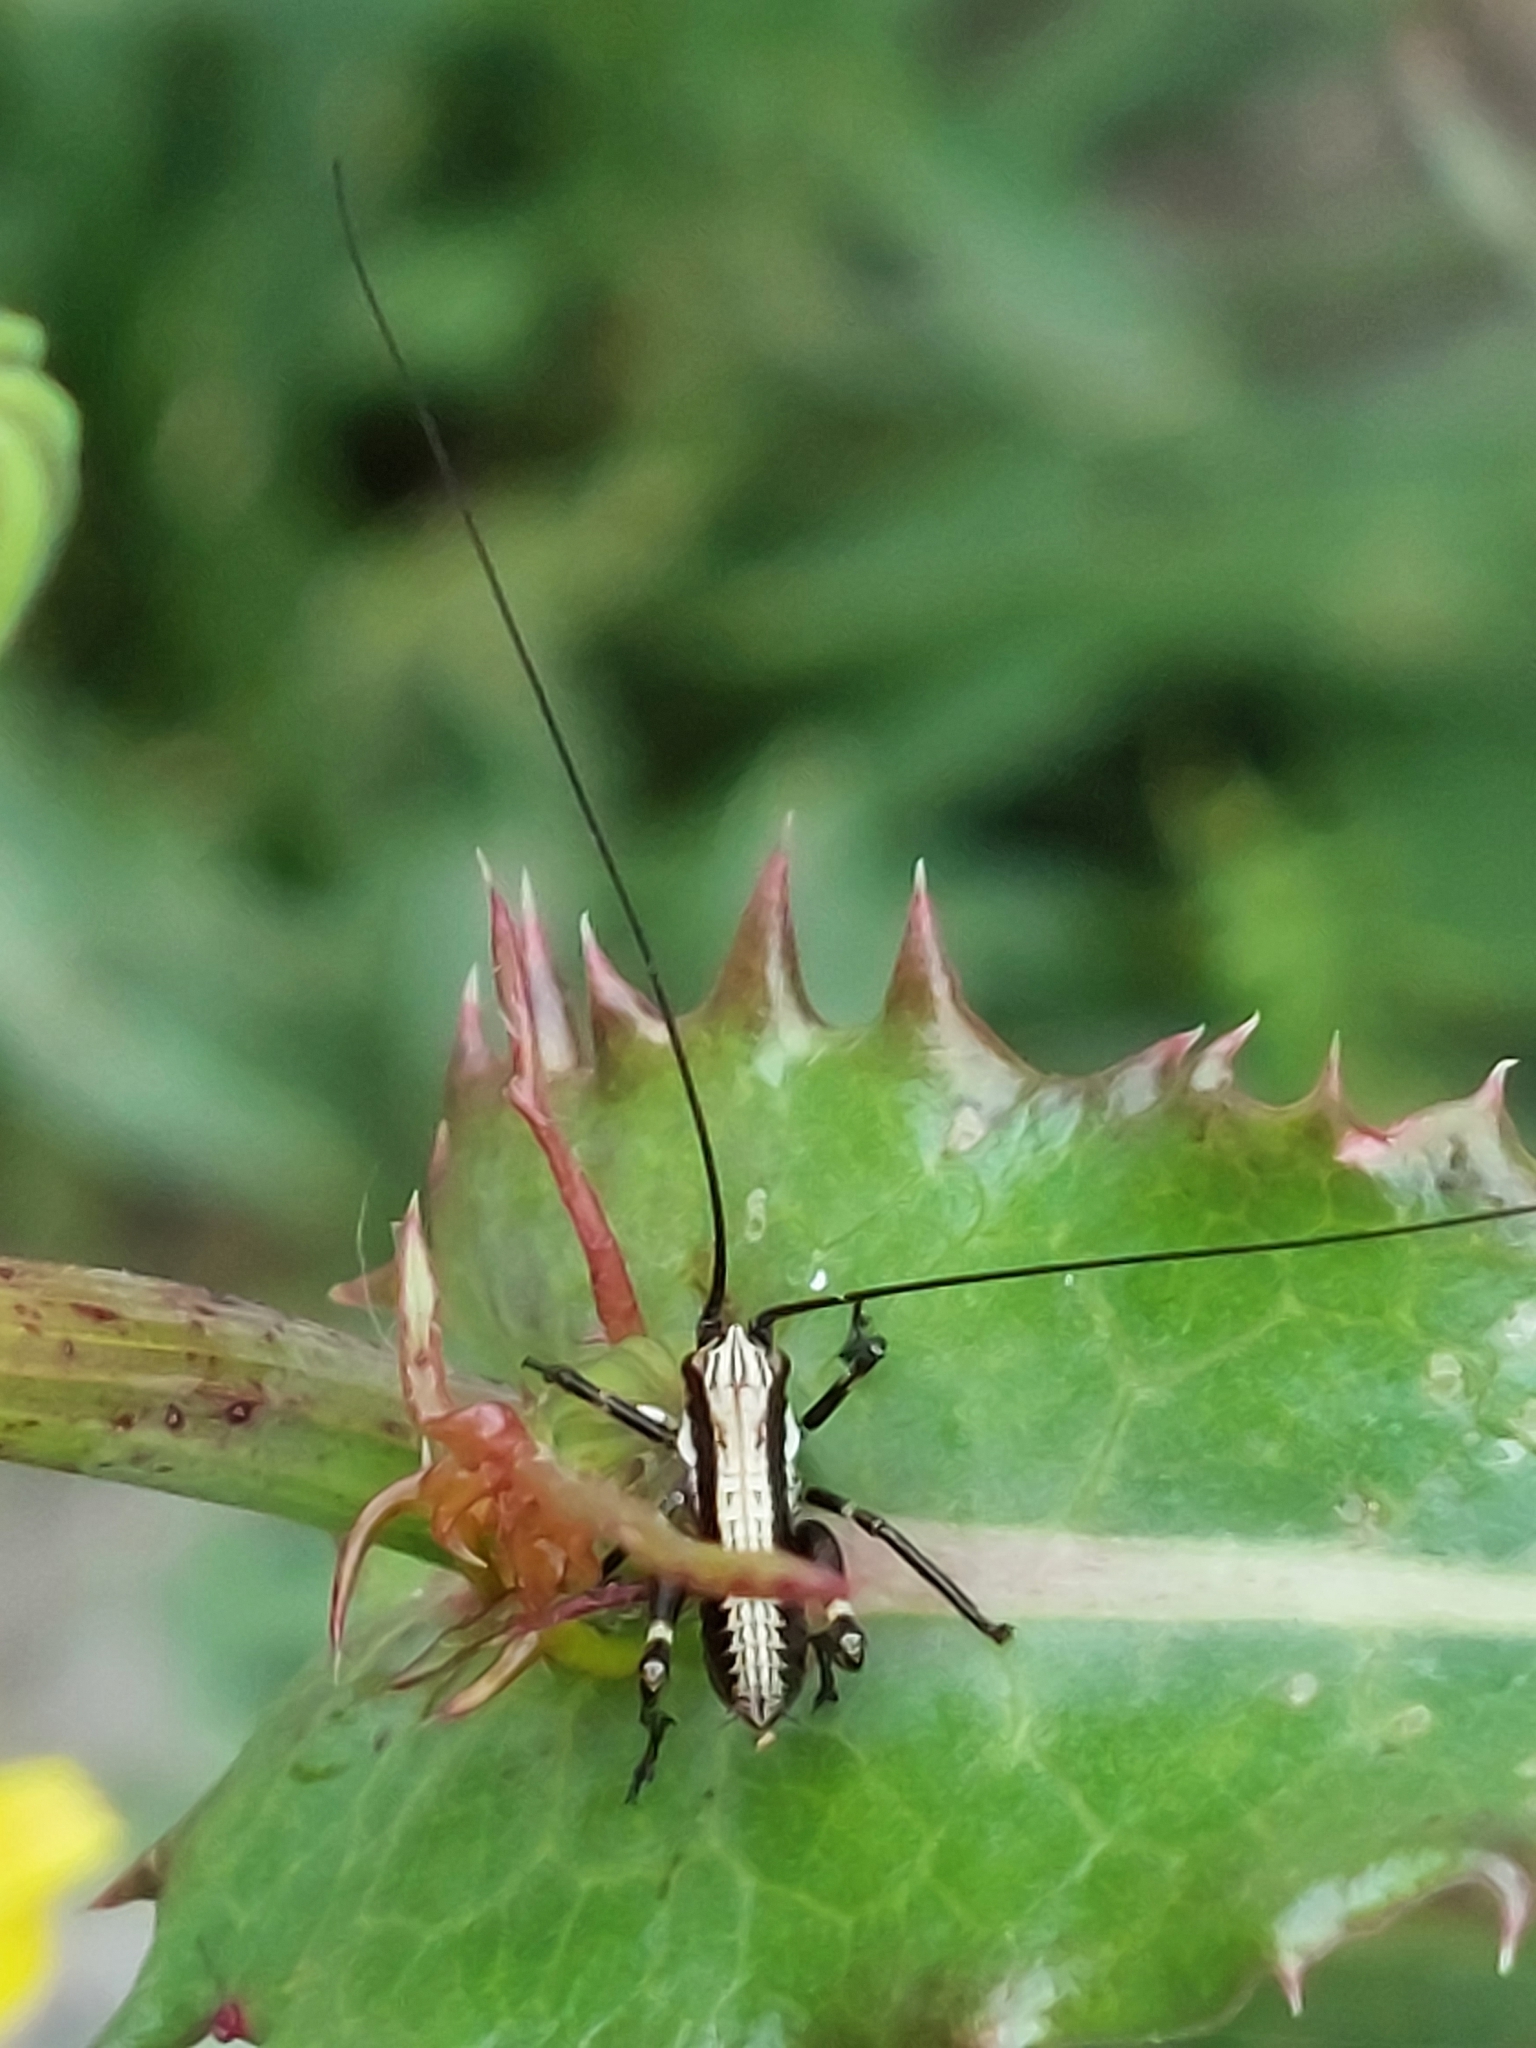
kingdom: Animalia
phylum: Arthropoda
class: Insecta
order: Orthoptera
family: Tettigoniidae
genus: Antaxius
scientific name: Antaxius pedestris
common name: Common mountain bush-cricket
